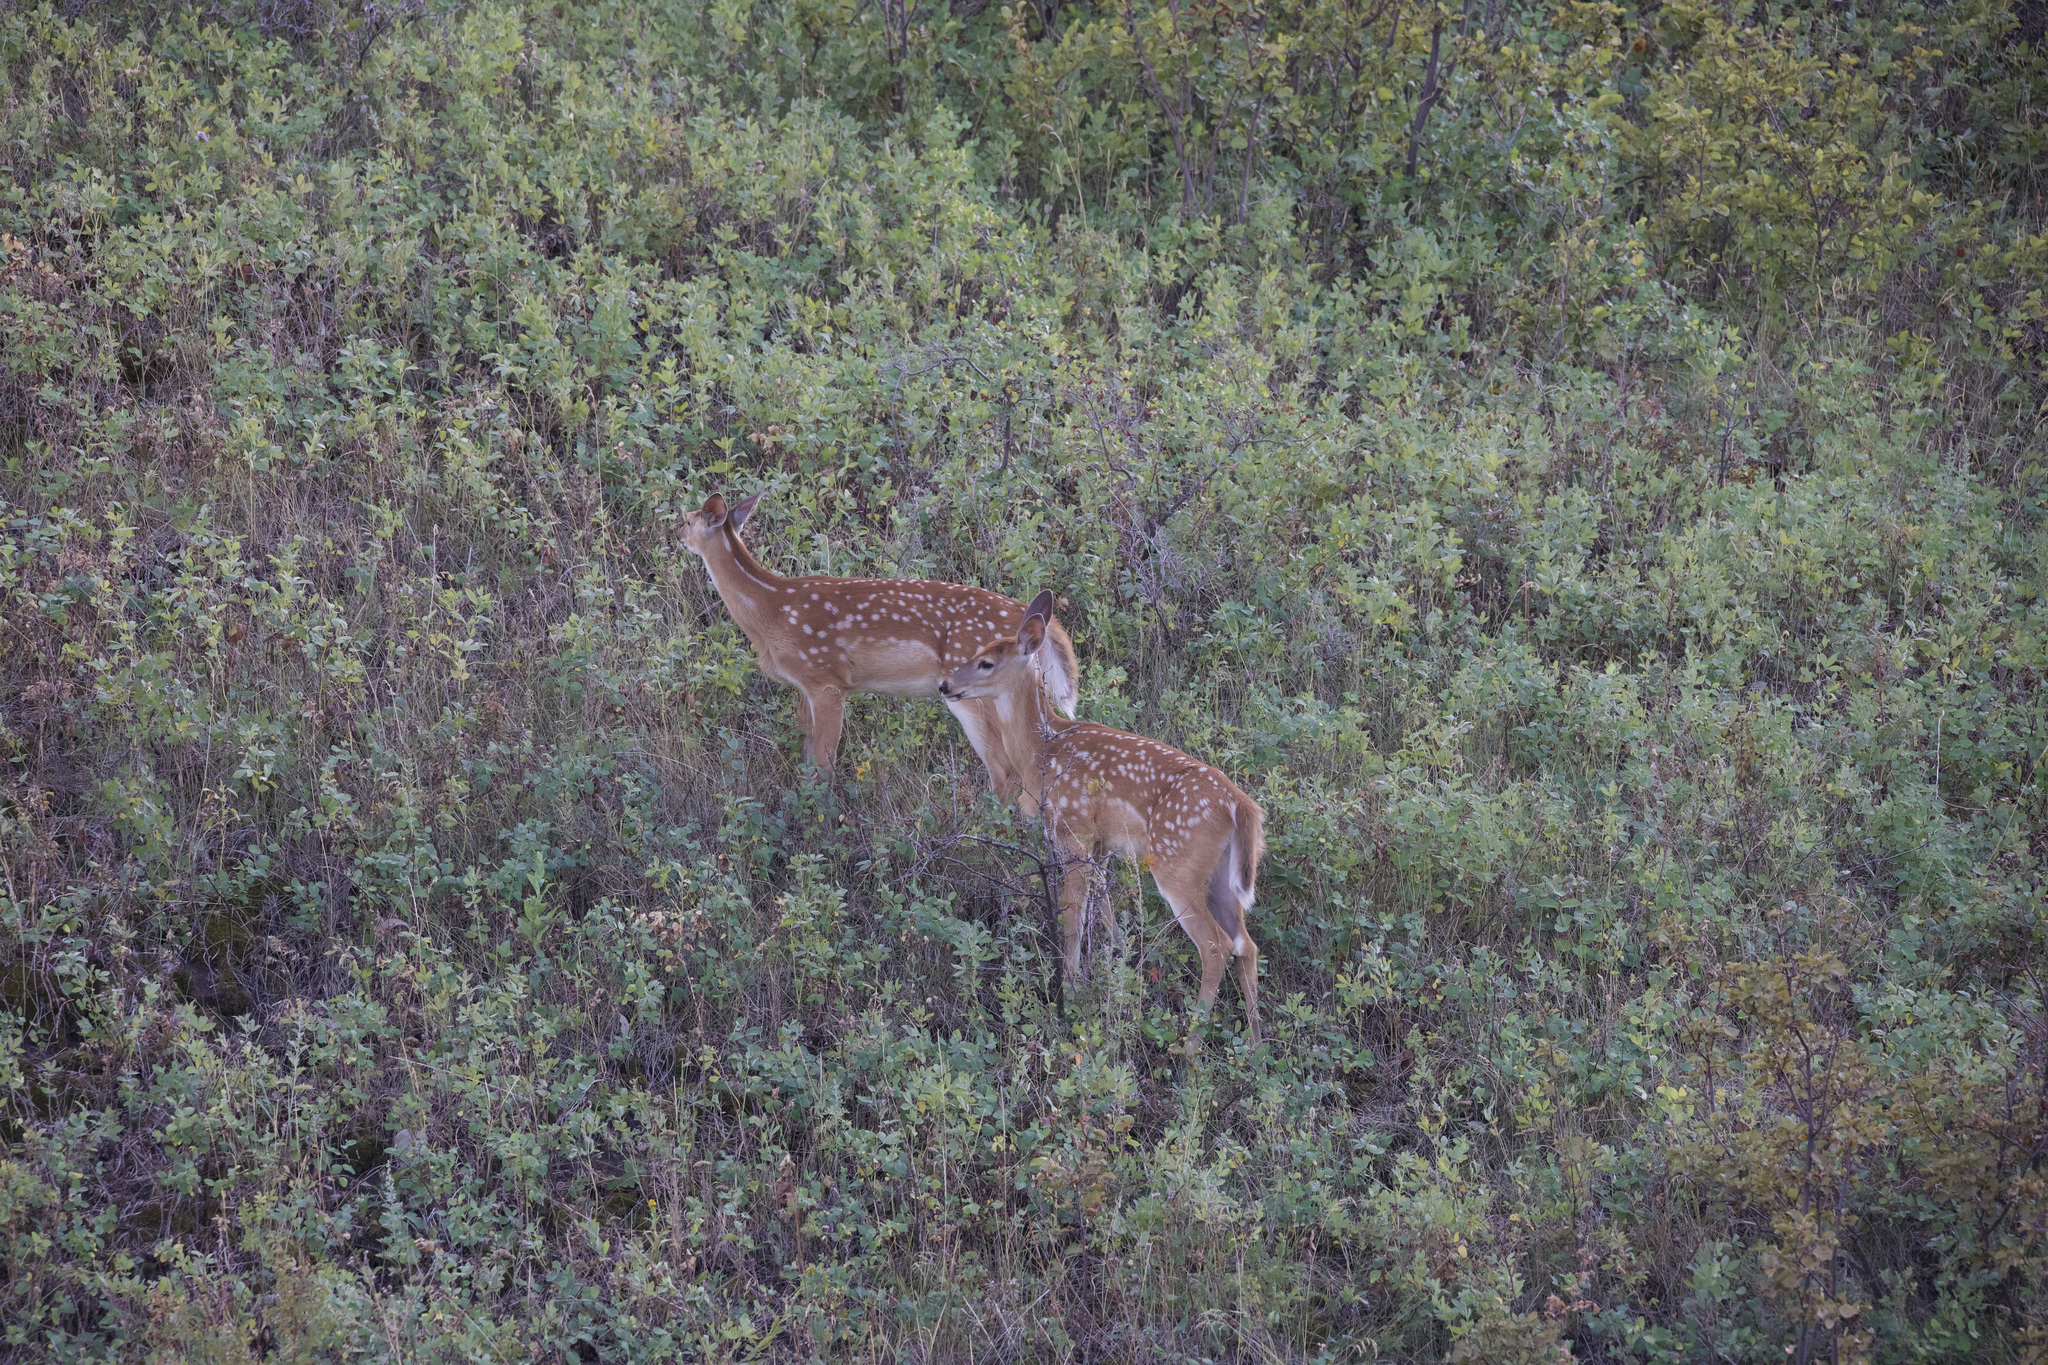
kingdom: Animalia
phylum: Chordata
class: Mammalia
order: Artiodactyla
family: Cervidae
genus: Odocoileus
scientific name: Odocoileus virginianus
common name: White-tailed deer
